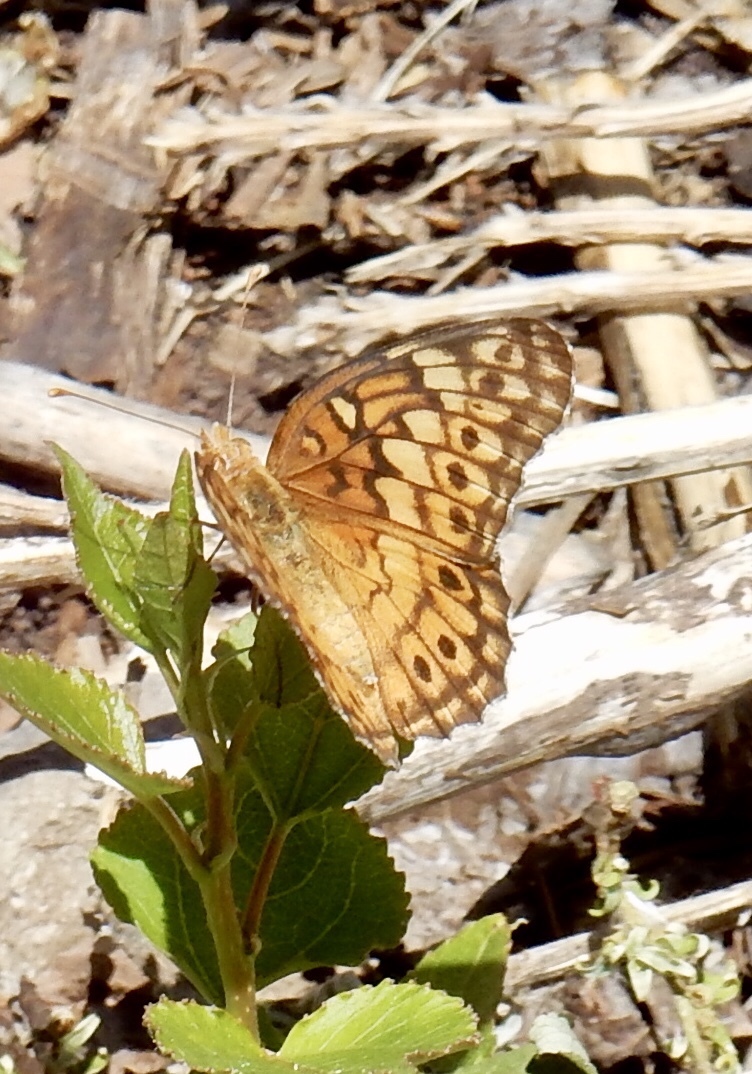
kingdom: Animalia
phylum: Arthropoda
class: Insecta
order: Lepidoptera
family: Nymphalidae
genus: Euptoieta
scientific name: Euptoieta claudia
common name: Variegated fritillary
